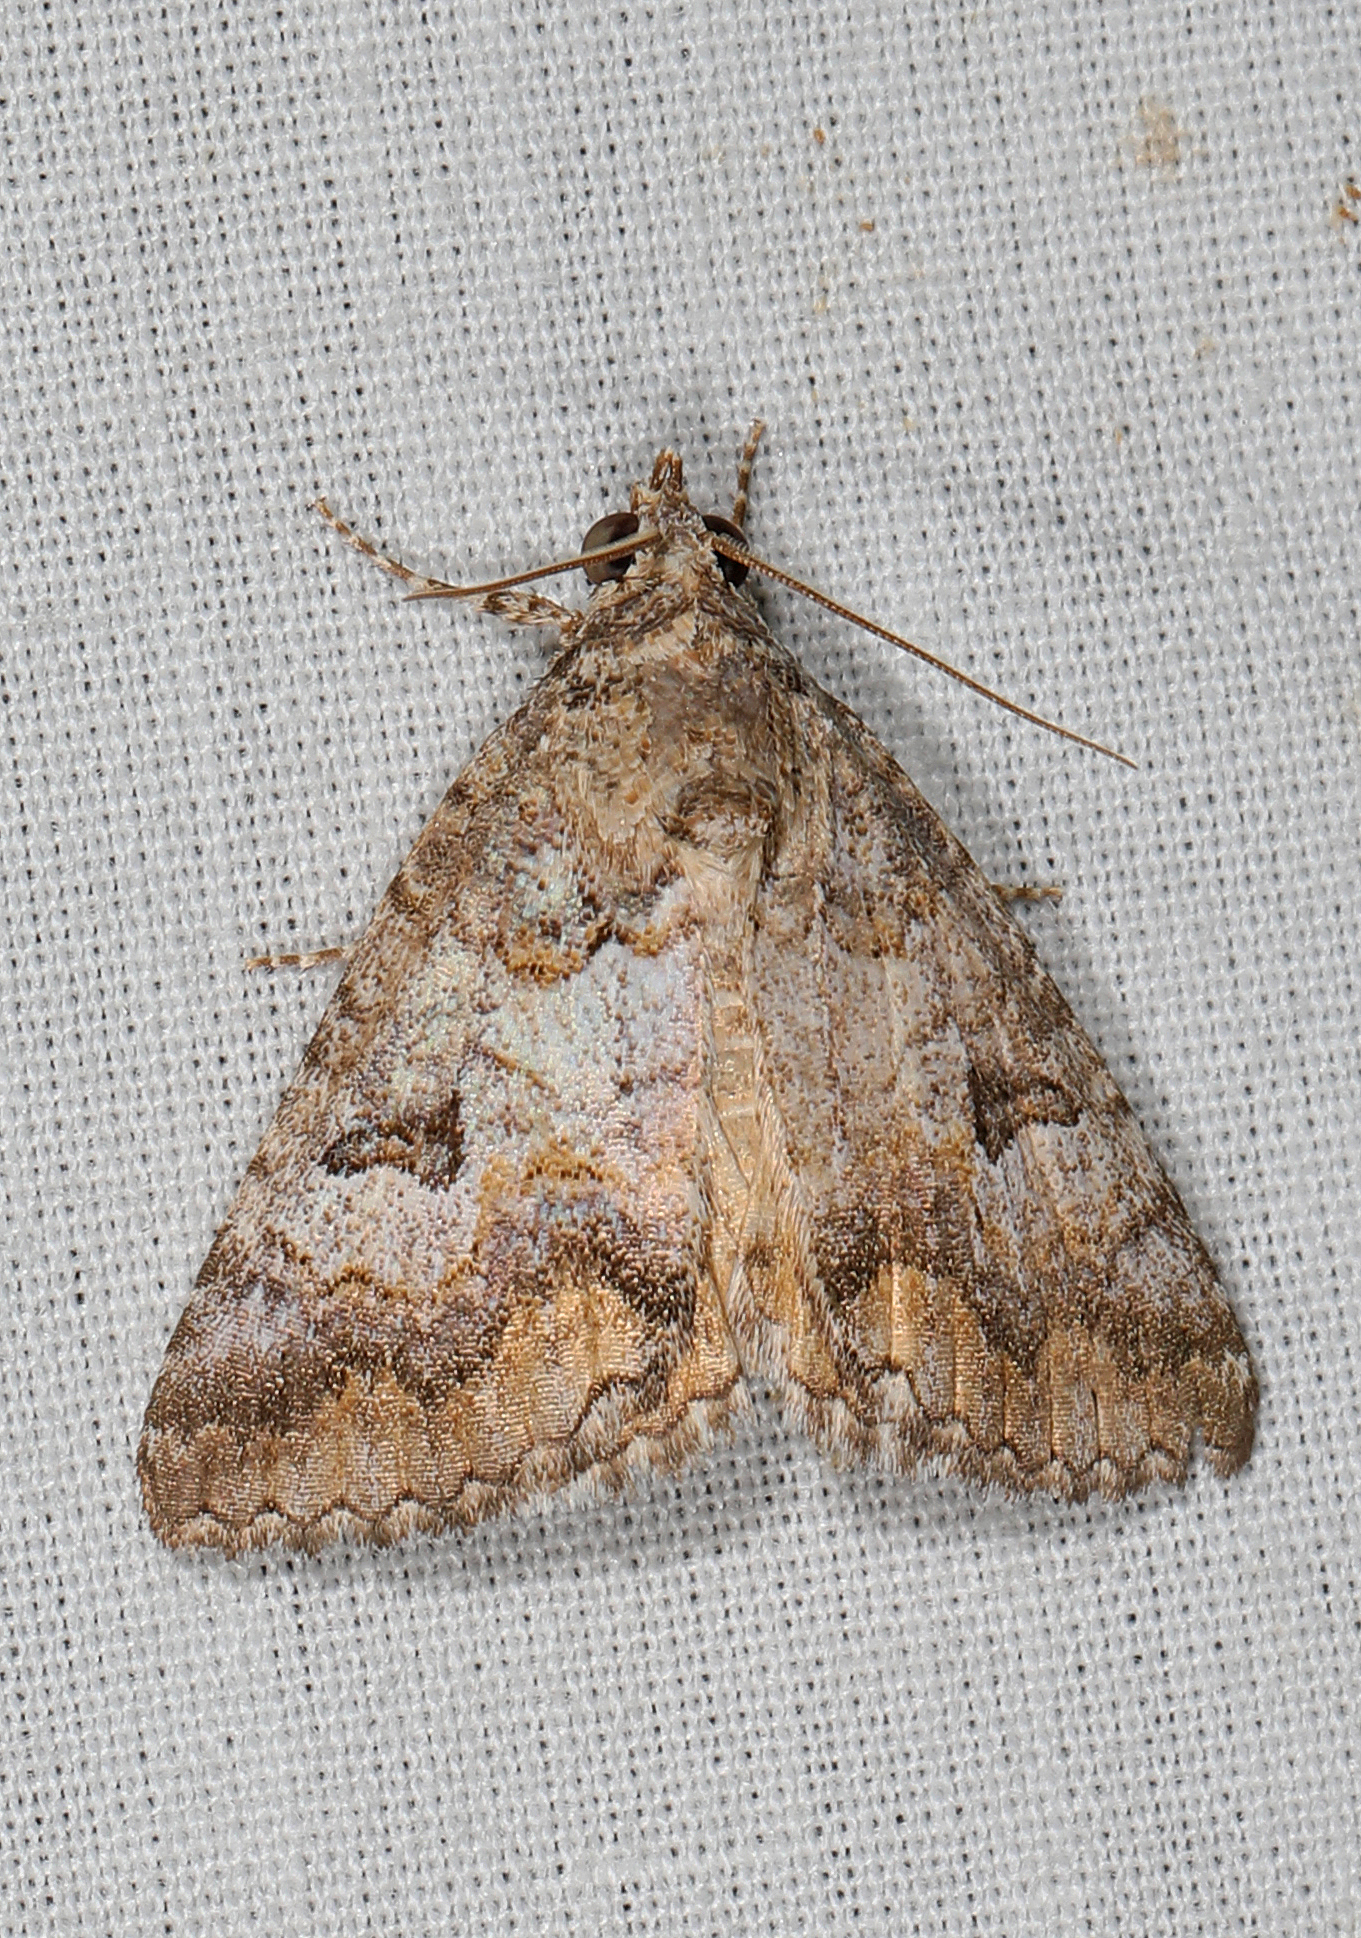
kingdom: Animalia
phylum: Arthropoda
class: Insecta
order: Lepidoptera
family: Erebidae
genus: Eubolina
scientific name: Eubolina impartialis
